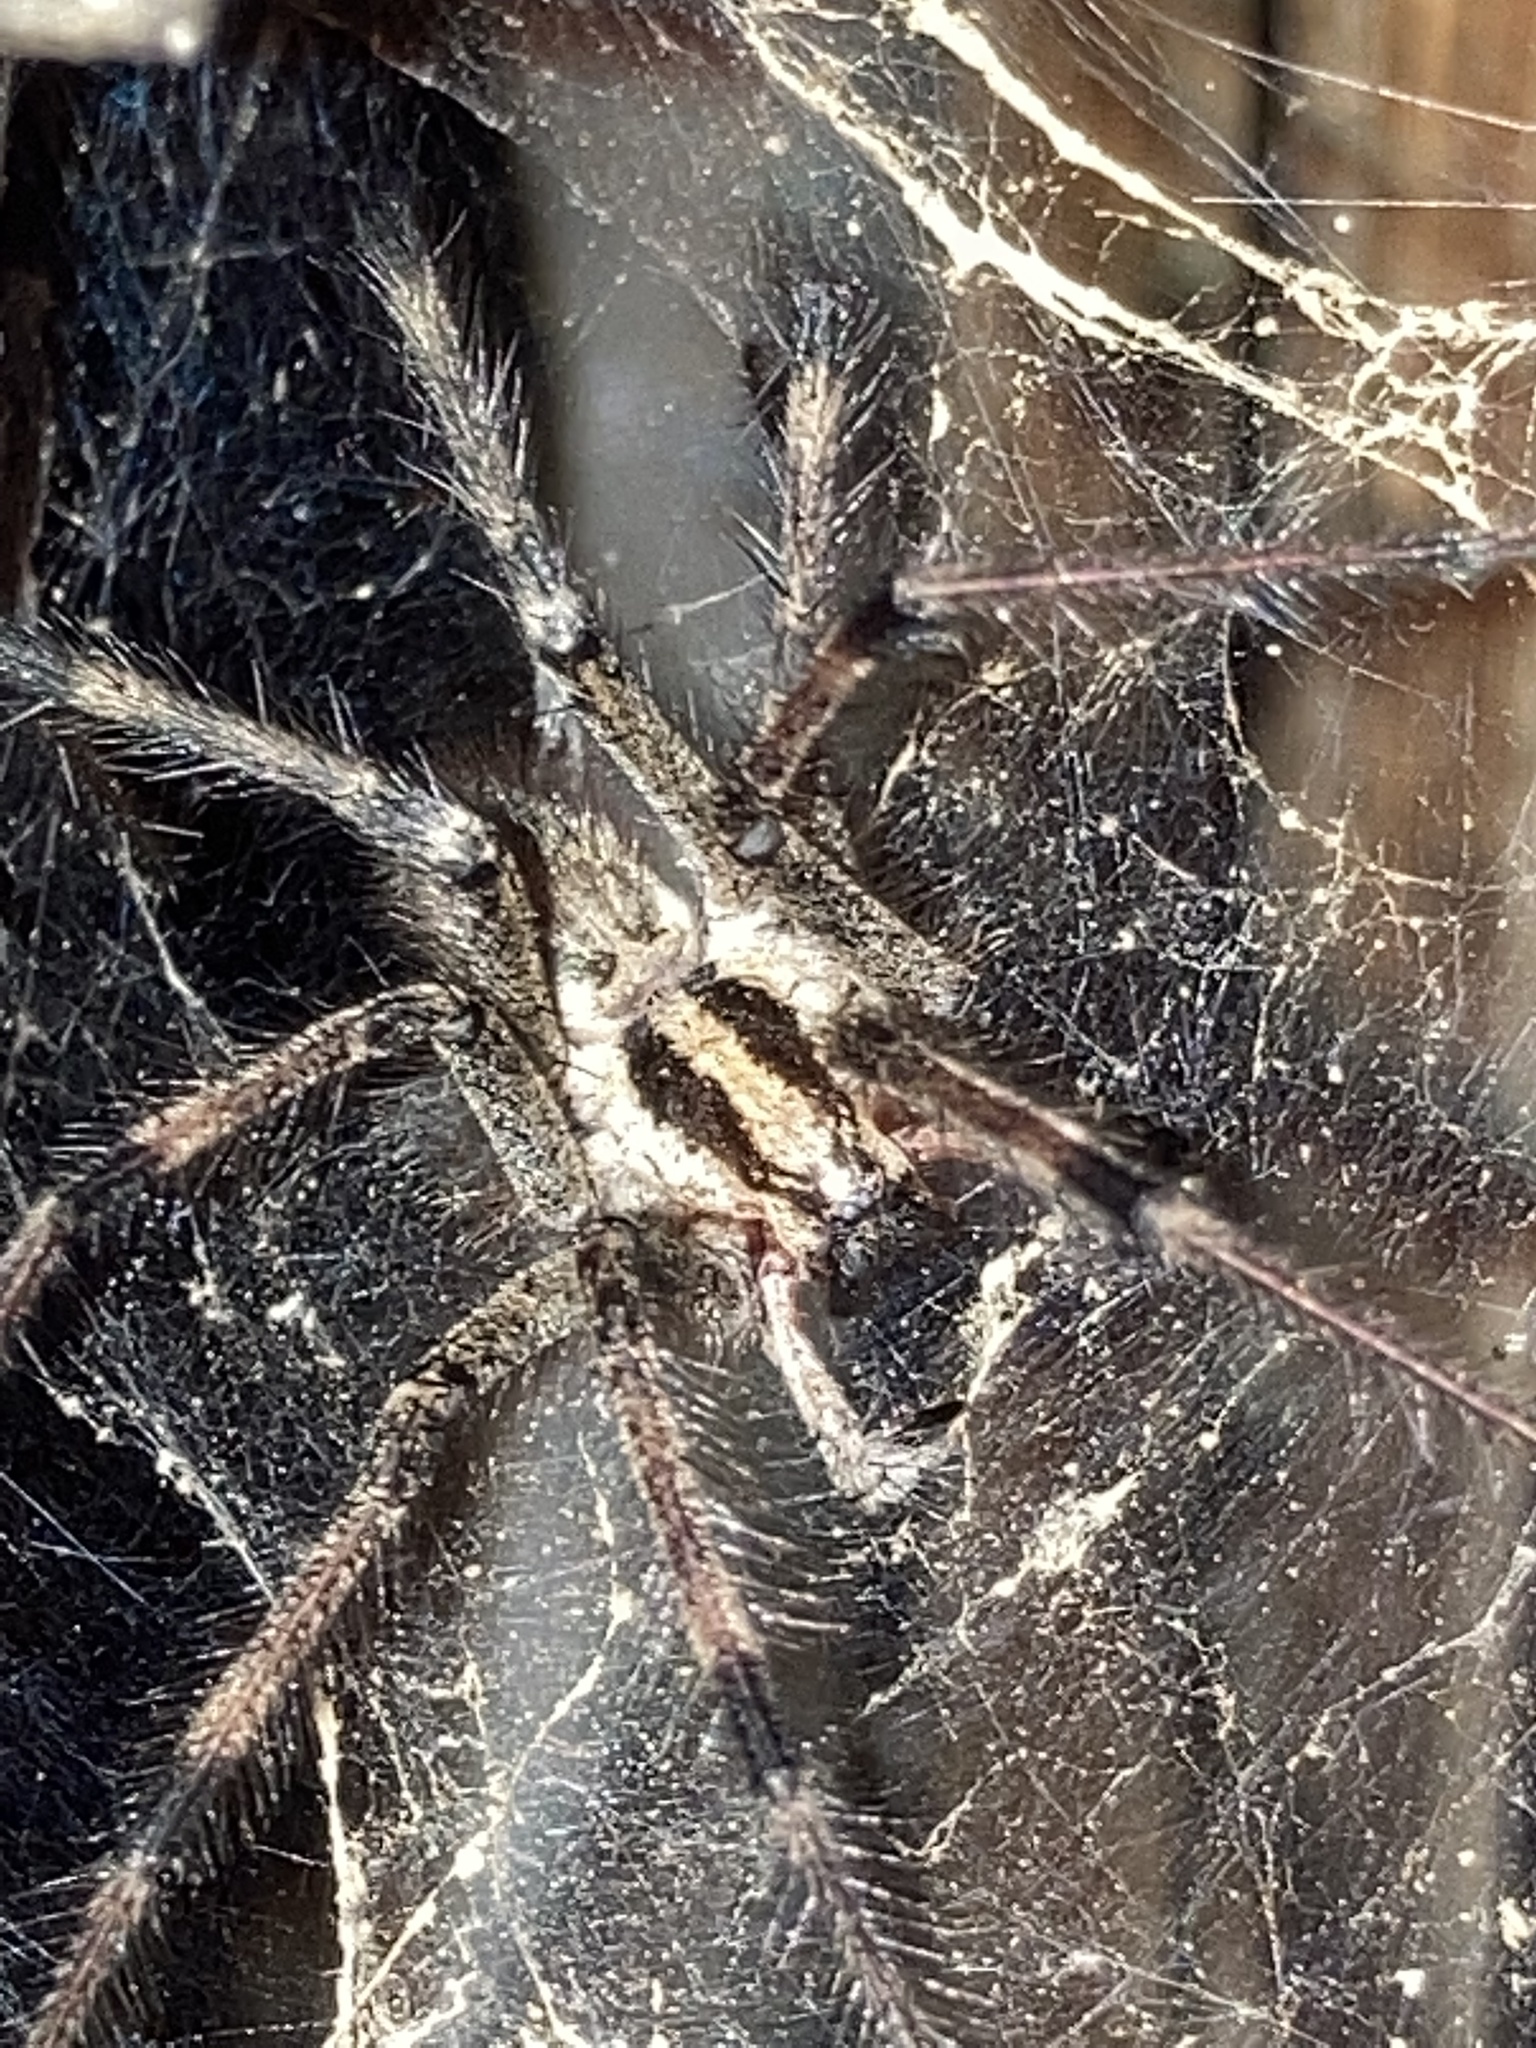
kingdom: Animalia
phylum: Arthropoda
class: Arachnida
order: Araneae
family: Agelenidae
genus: Agelenopsis
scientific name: Agelenopsis
